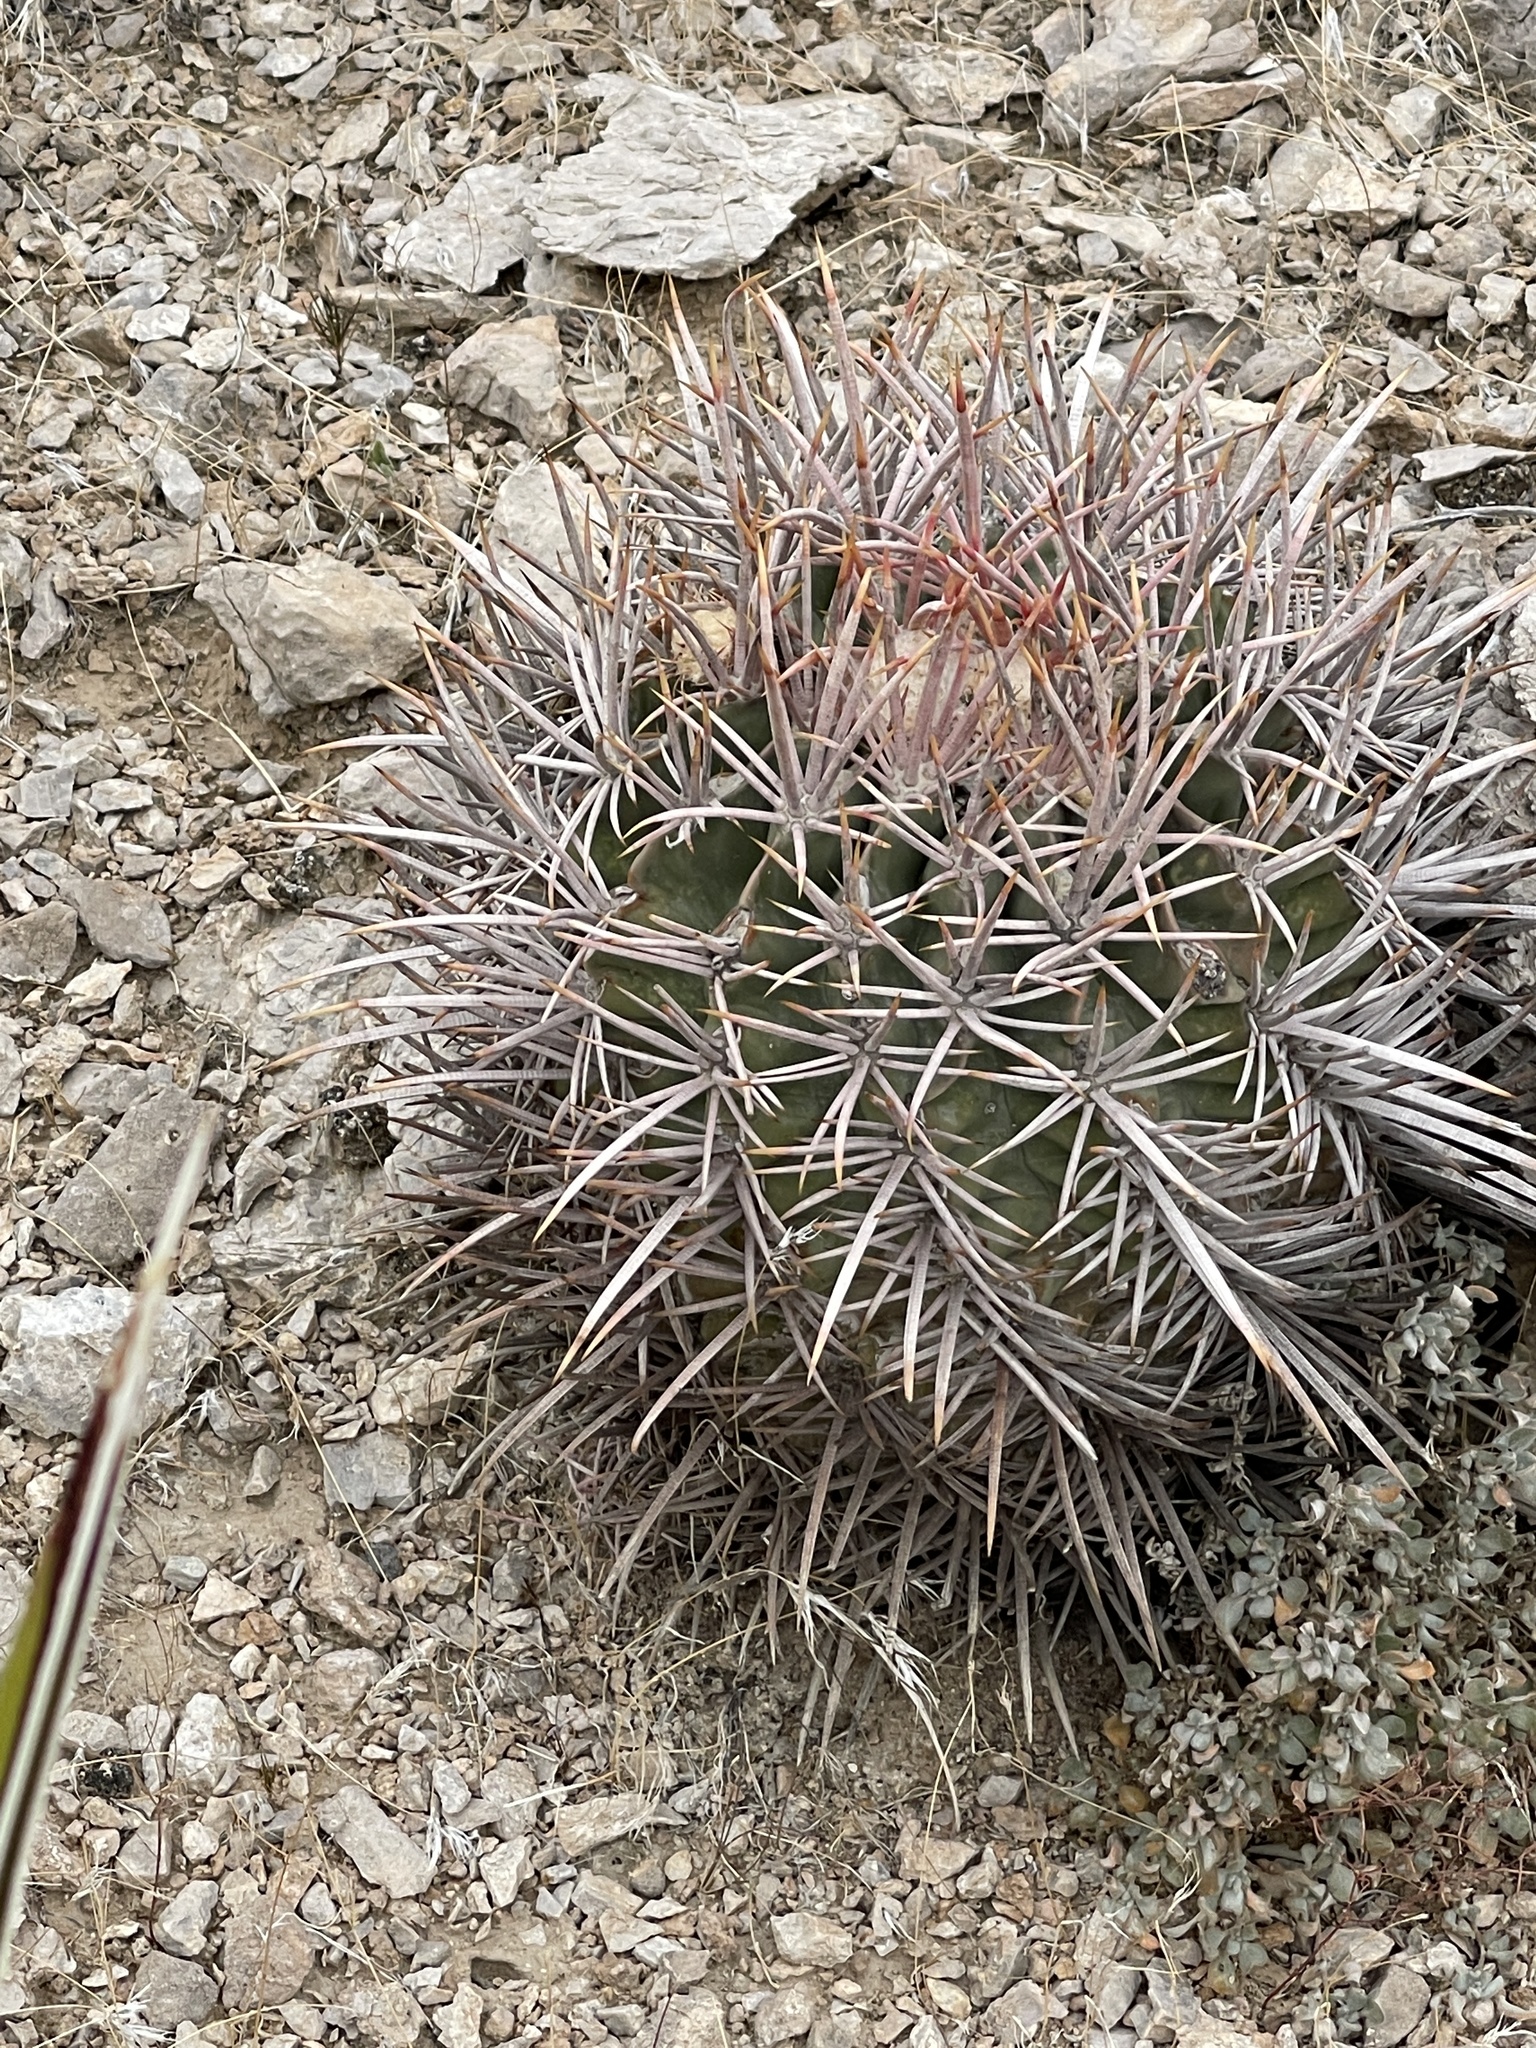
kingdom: Plantae
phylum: Tracheophyta
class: Magnoliopsida
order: Caryophyllales
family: Cactaceae
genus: Echinocactus
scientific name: Echinocactus polycephalus
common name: Cottontop cactus
